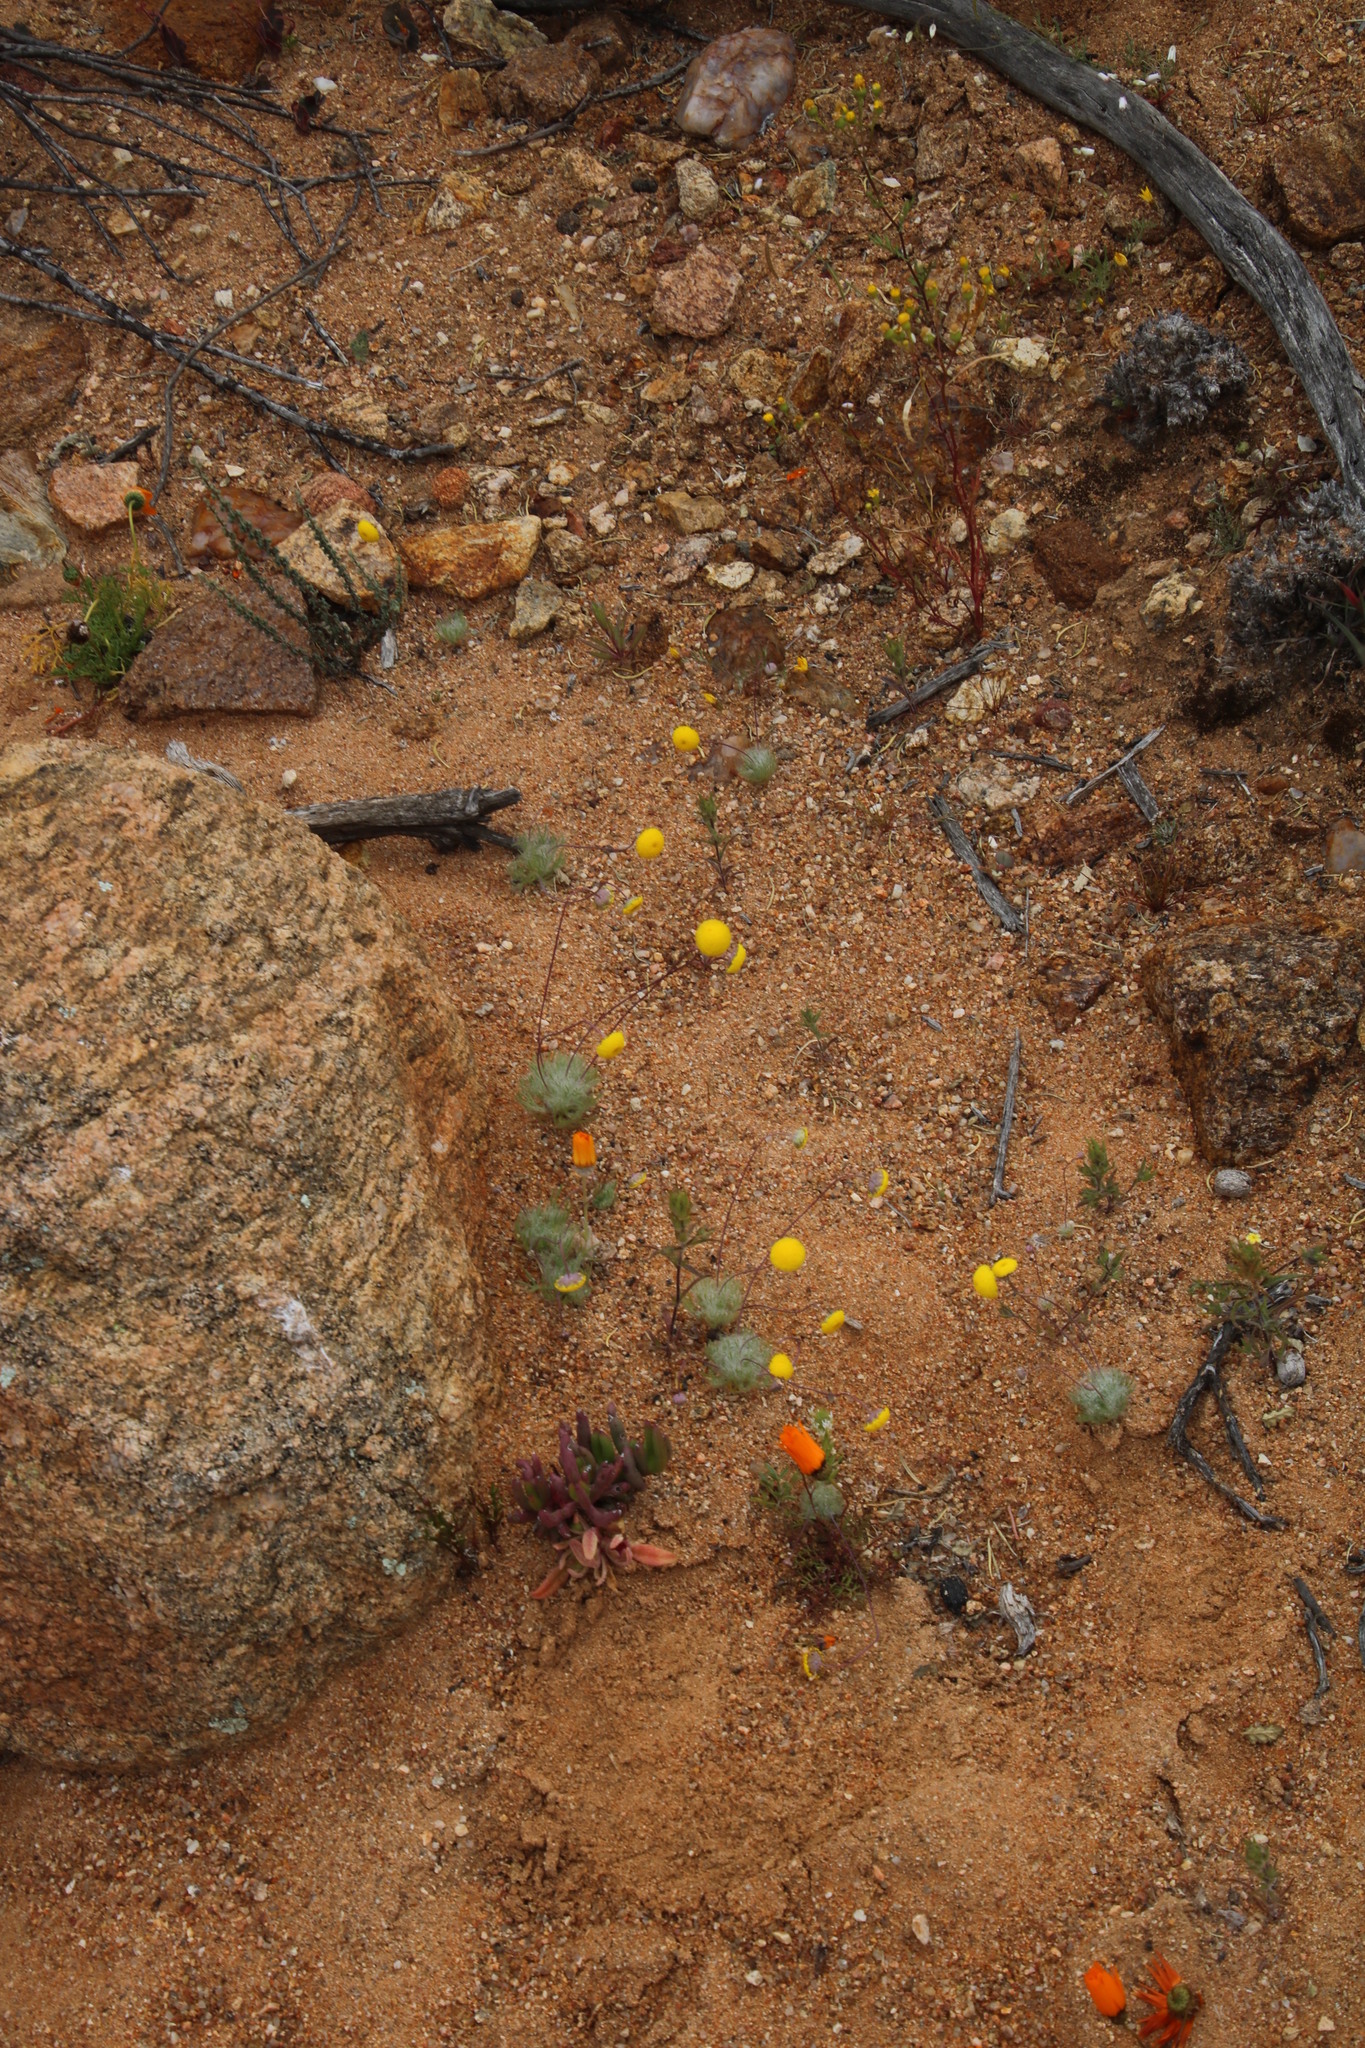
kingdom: Plantae
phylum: Tracheophyta
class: Magnoliopsida
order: Asterales
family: Asteraceae
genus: Cotula
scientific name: Cotula barbata
